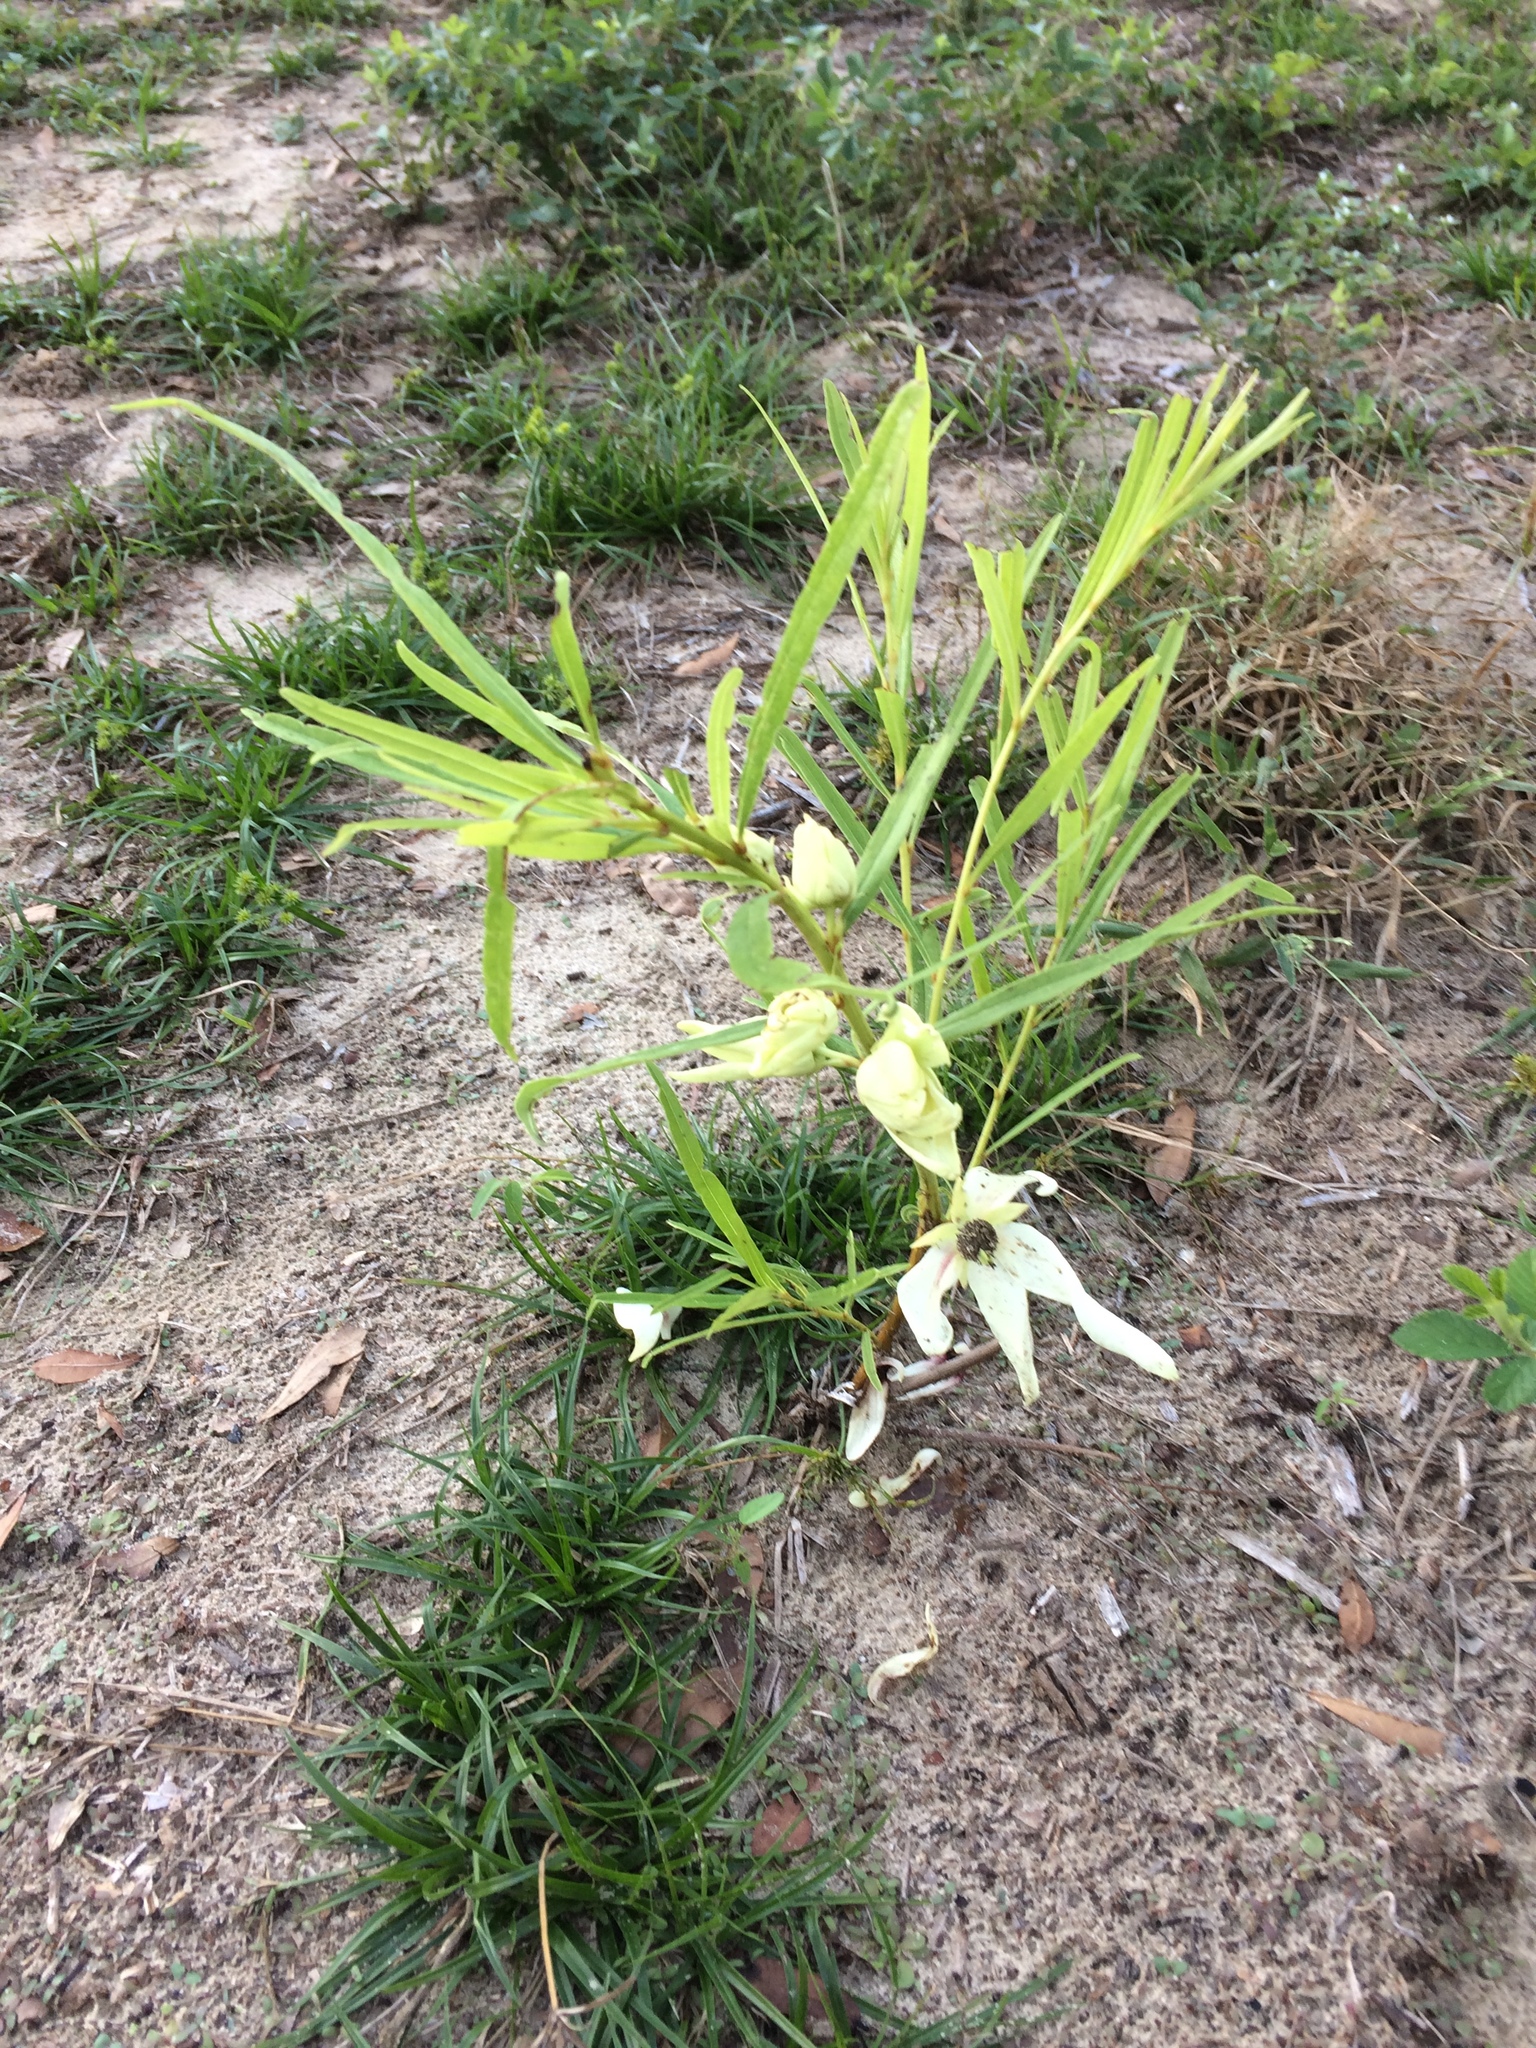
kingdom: Plantae
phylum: Tracheophyta
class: Magnoliopsida
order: Magnoliales
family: Annonaceae
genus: Asimina
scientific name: Asimina longifolia
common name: Polecatbush
